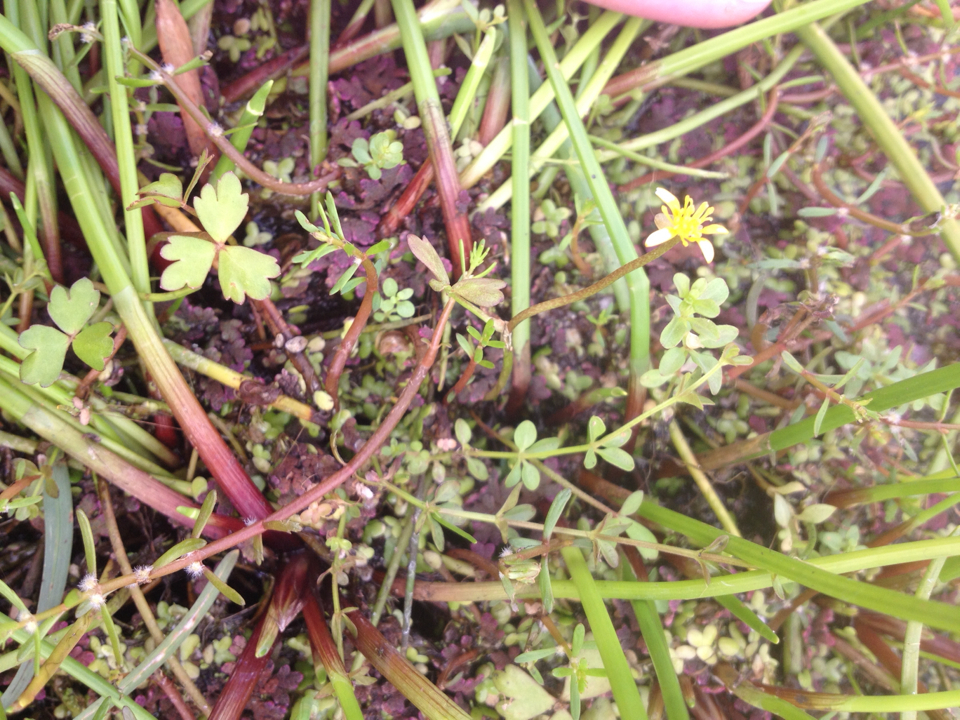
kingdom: Plantae
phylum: Tracheophyta
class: Magnoliopsida
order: Ranunculales
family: Ranunculaceae
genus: Ranunculus
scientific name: Ranunculus amphitrichus
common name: Small river buttercup
